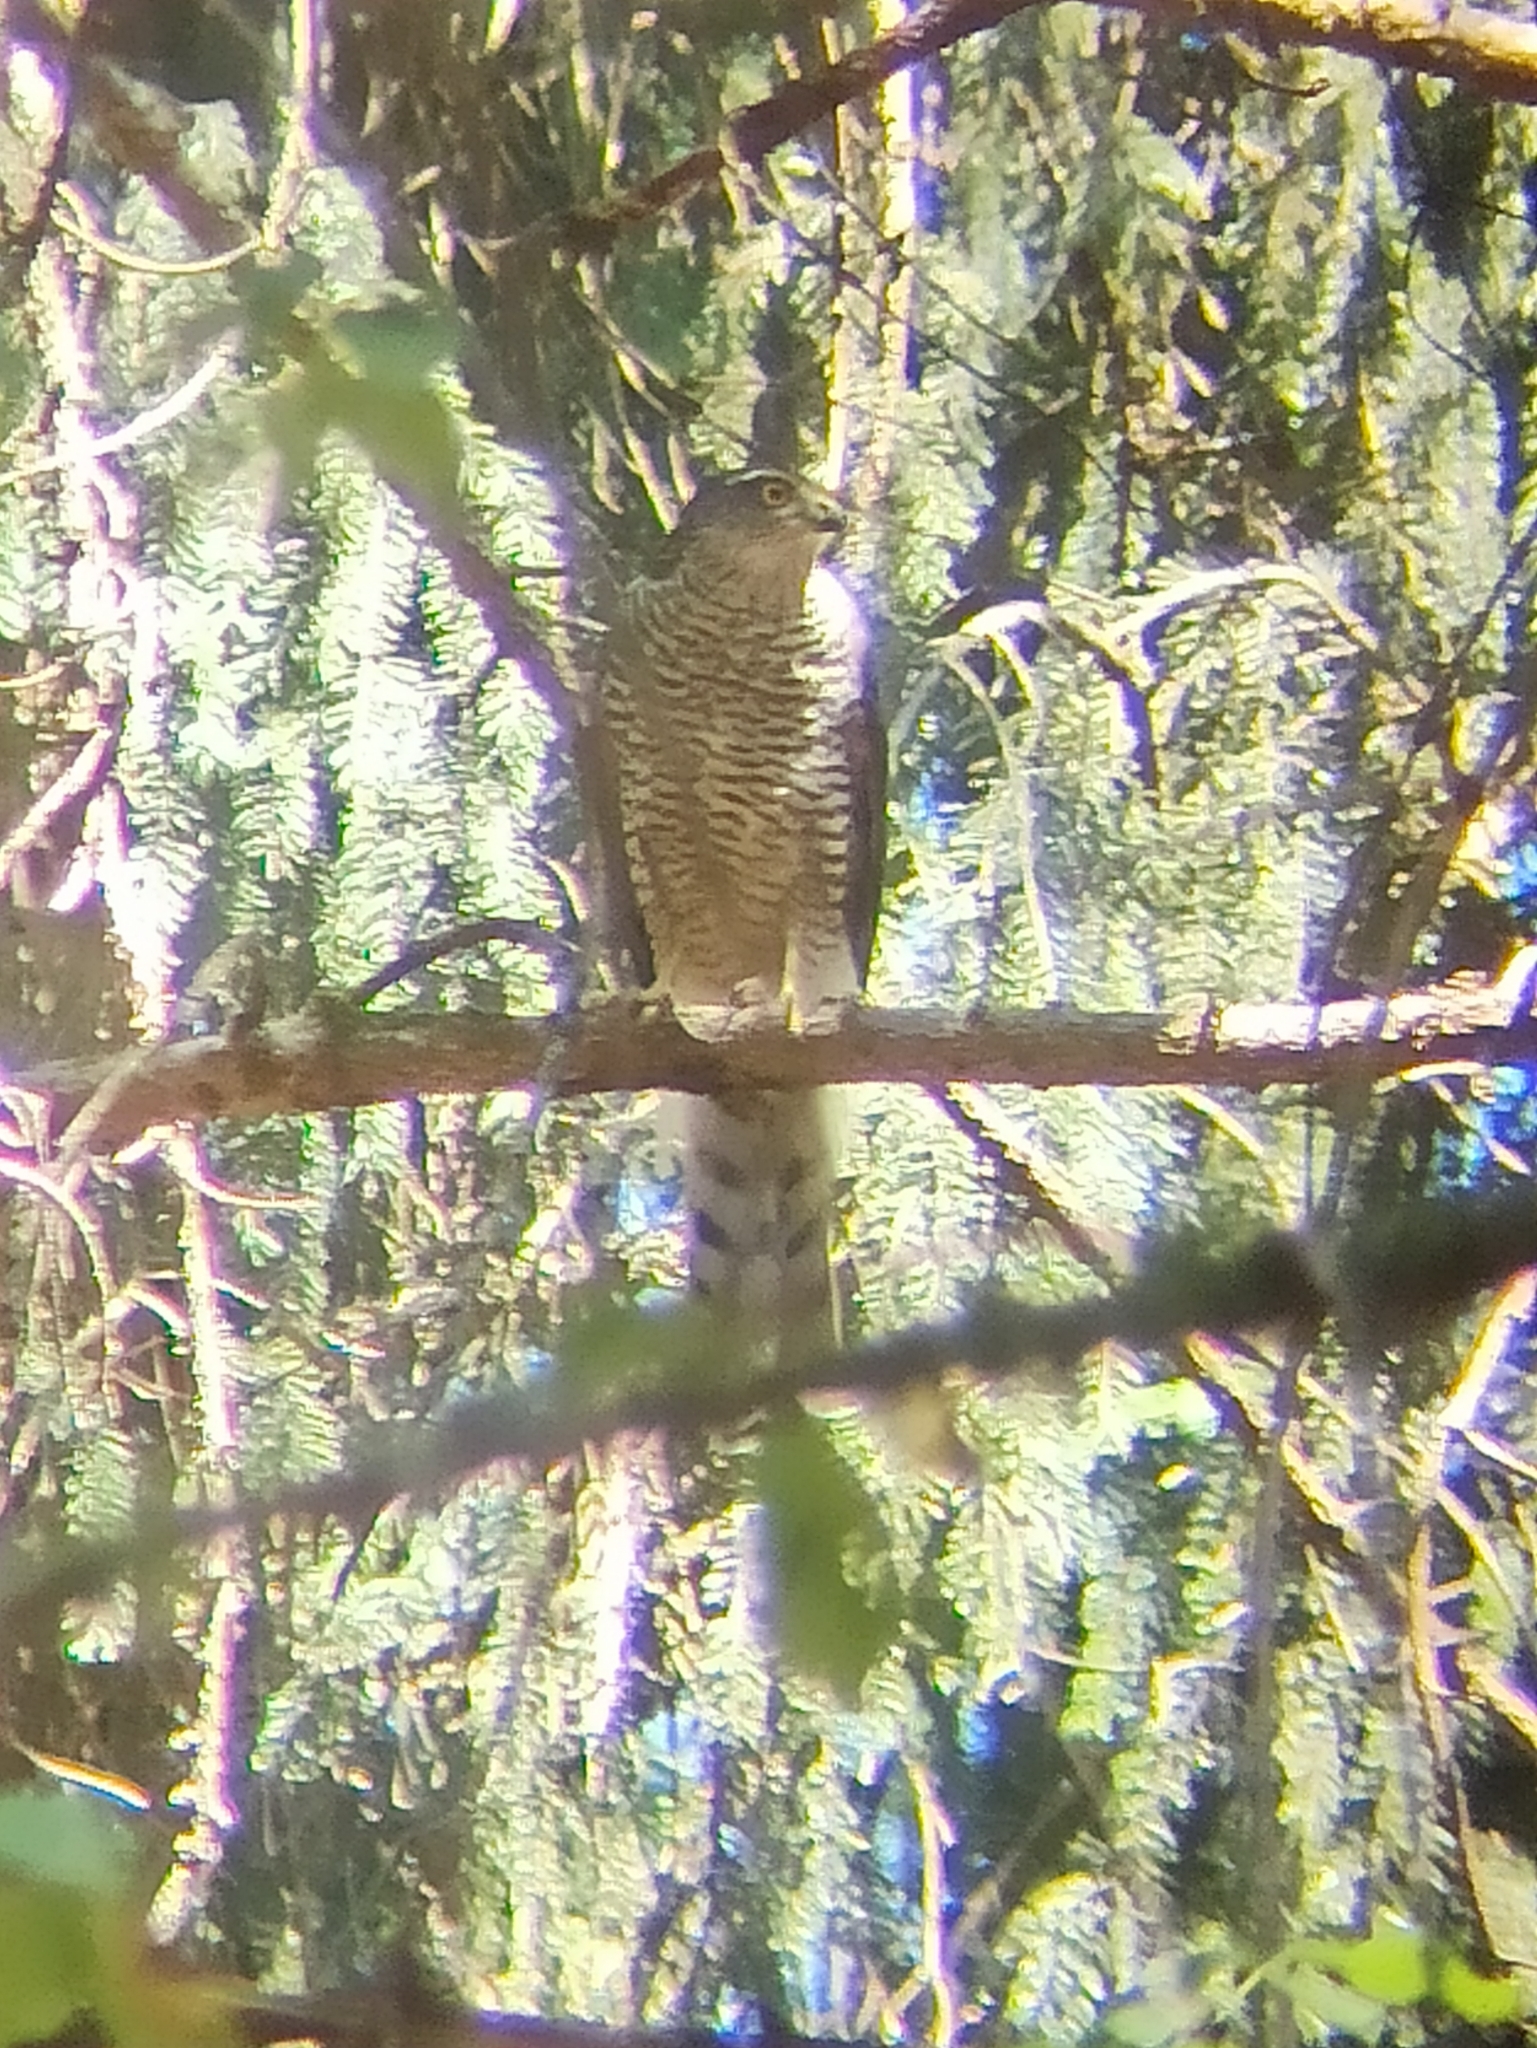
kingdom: Animalia
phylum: Chordata
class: Aves
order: Accipitriformes
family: Accipitridae
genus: Accipiter
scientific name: Accipiter nisus
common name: Eurasian sparrowhawk
